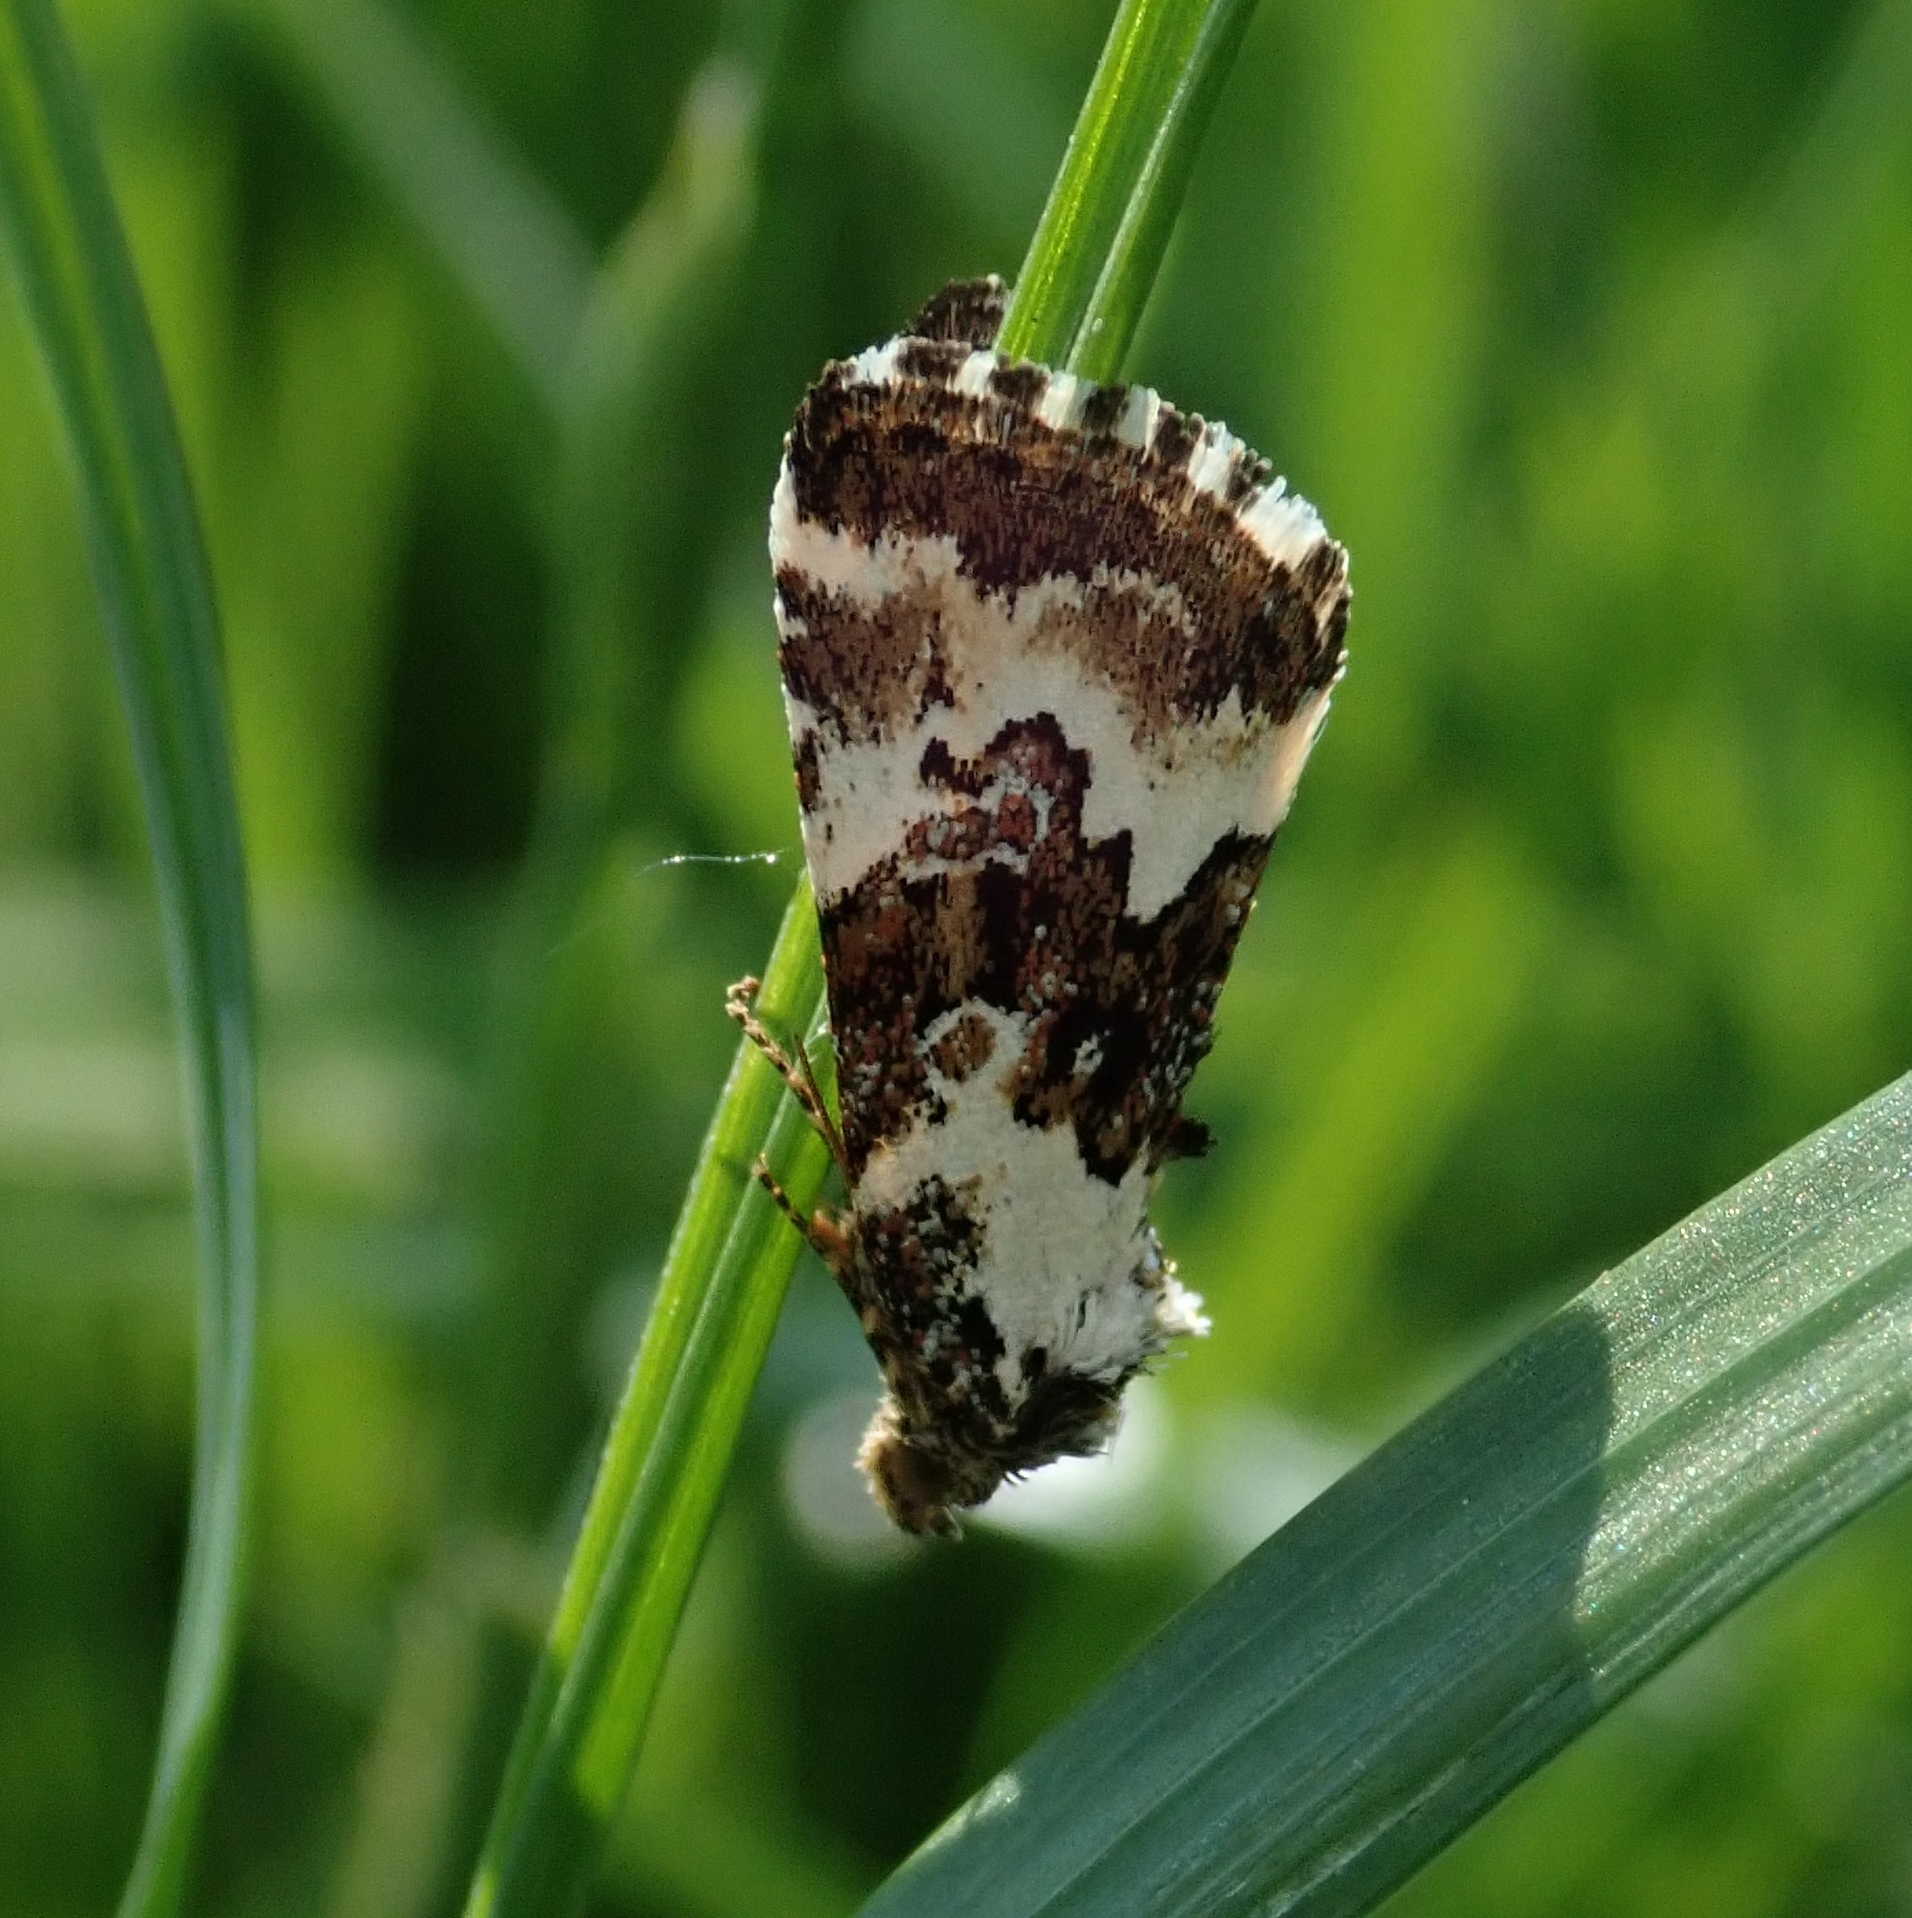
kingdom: Animalia
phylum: Arthropoda
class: Insecta
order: Lepidoptera
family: Noctuidae
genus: Deltote
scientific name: Deltote deceptoria
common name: Pretty marbled
